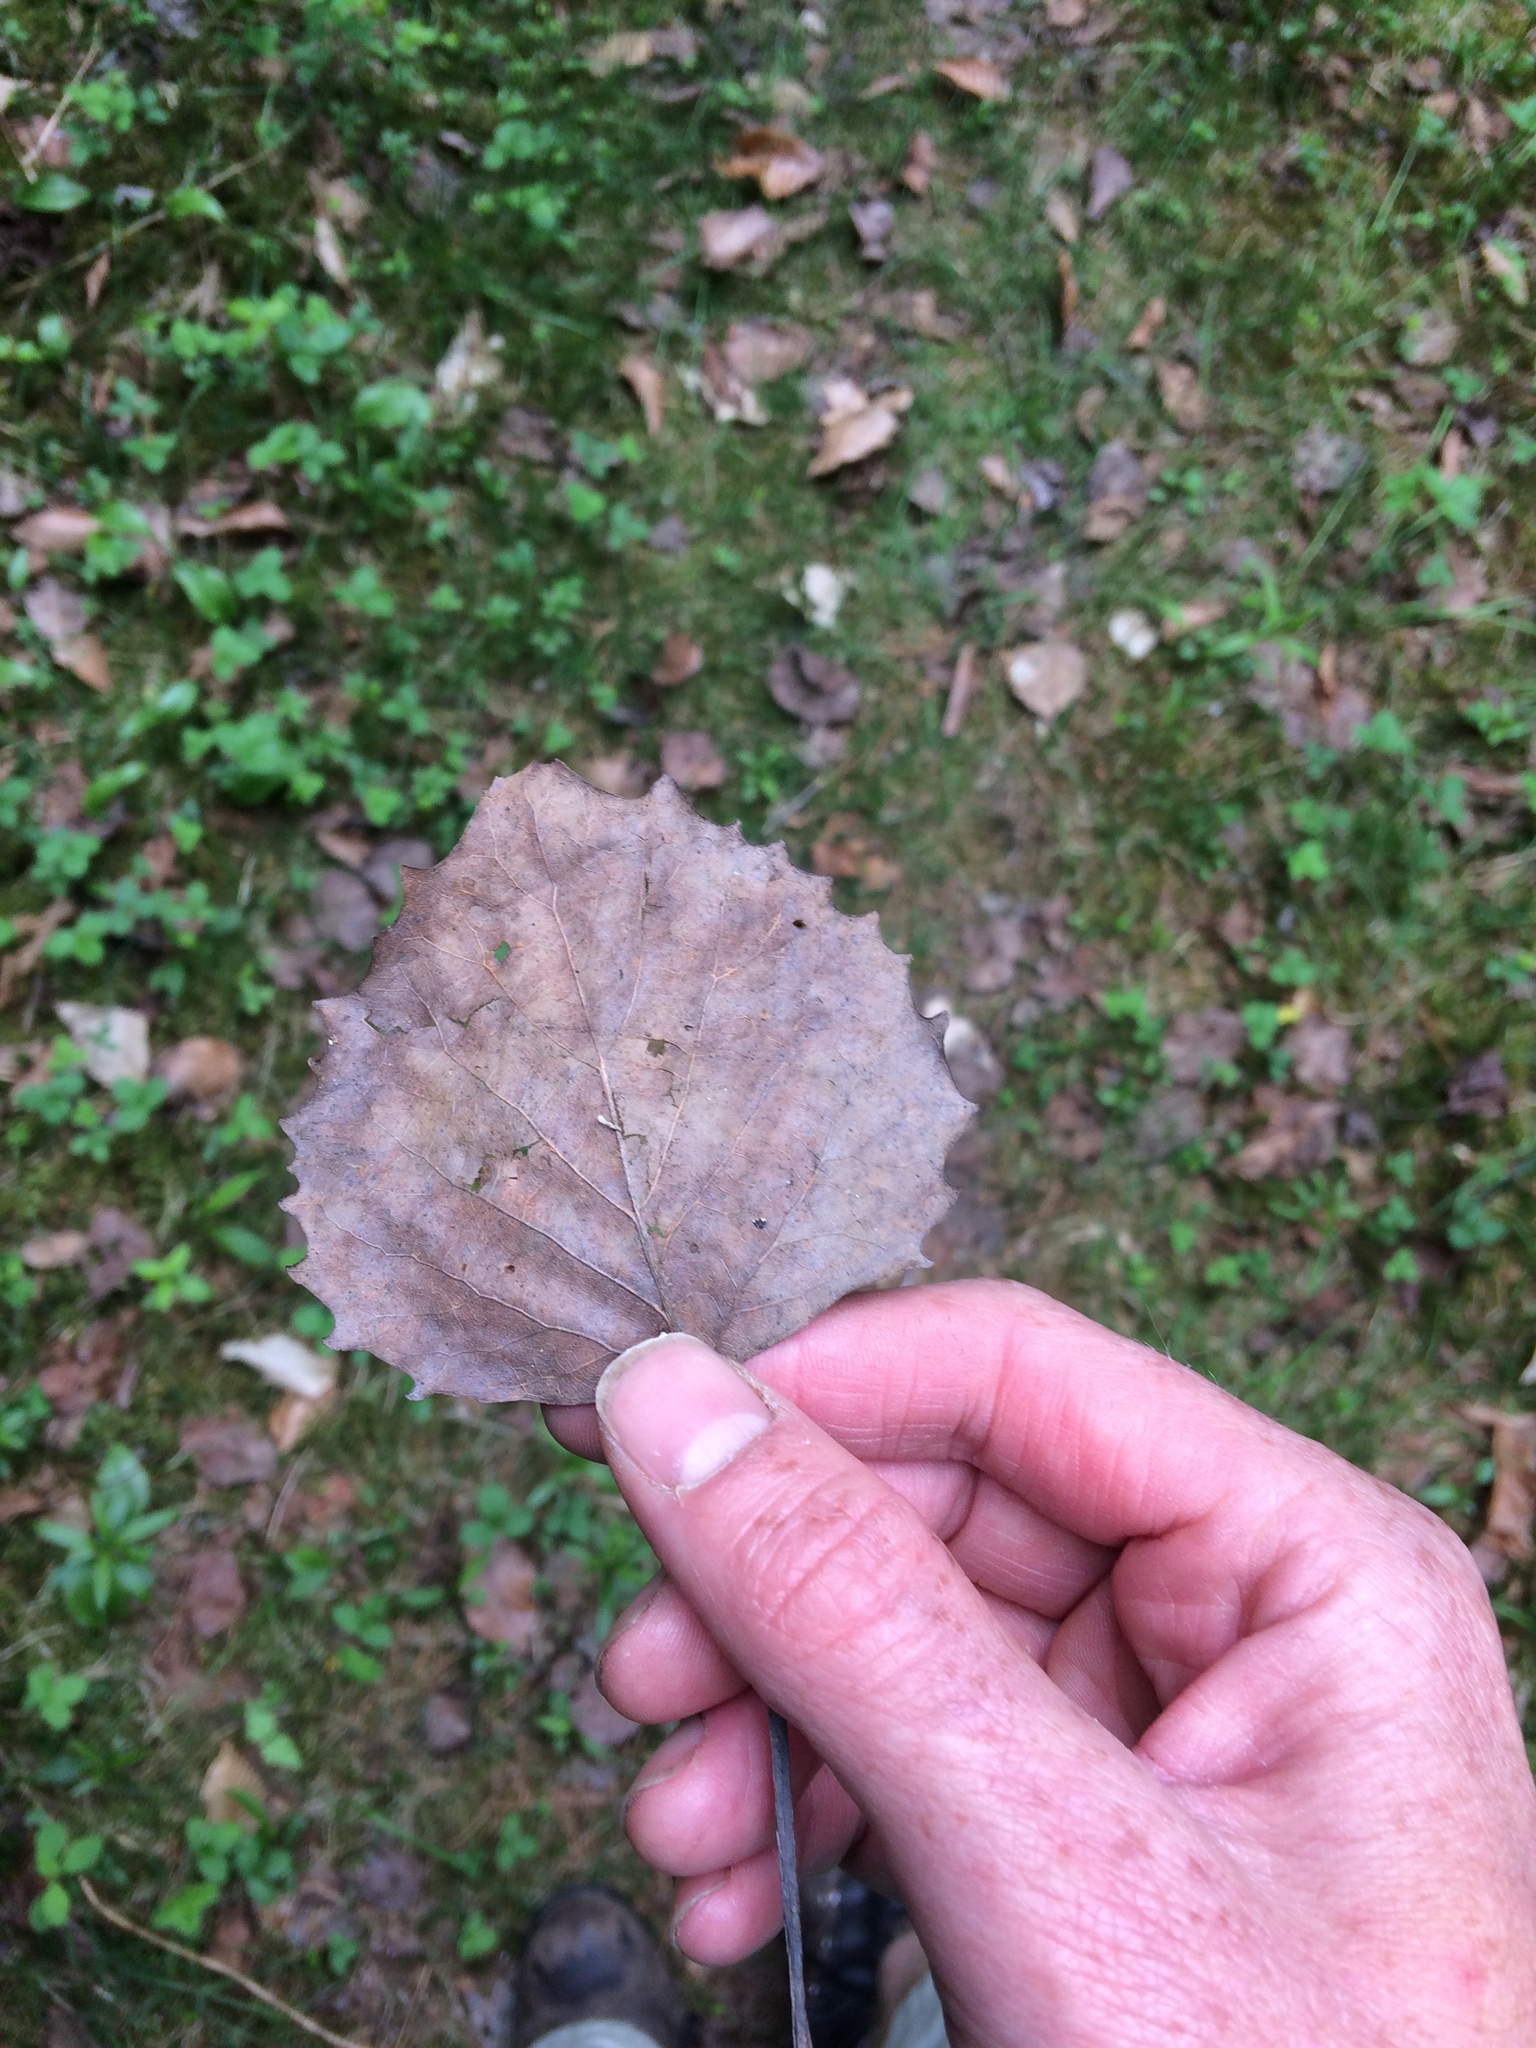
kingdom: Plantae
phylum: Tracheophyta
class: Magnoliopsida
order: Malpighiales
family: Salicaceae
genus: Populus
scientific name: Populus grandidentata
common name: Bigtooth aspen
